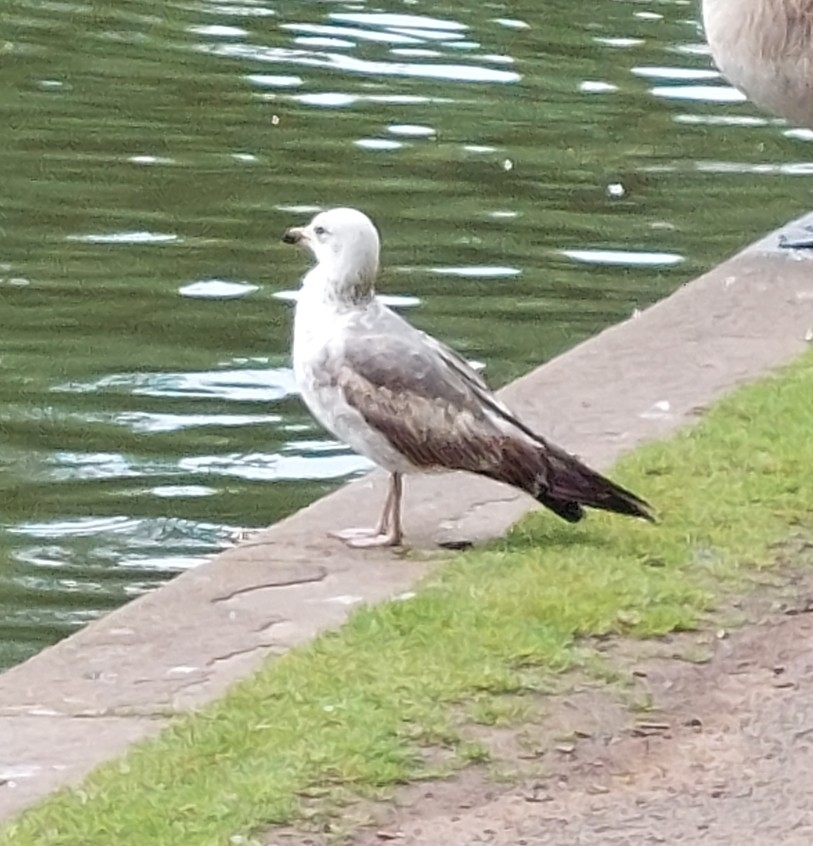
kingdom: Animalia
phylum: Chordata
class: Aves
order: Charadriiformes
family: Laridae
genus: Larus
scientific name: Larus argentatus
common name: Herring gull
